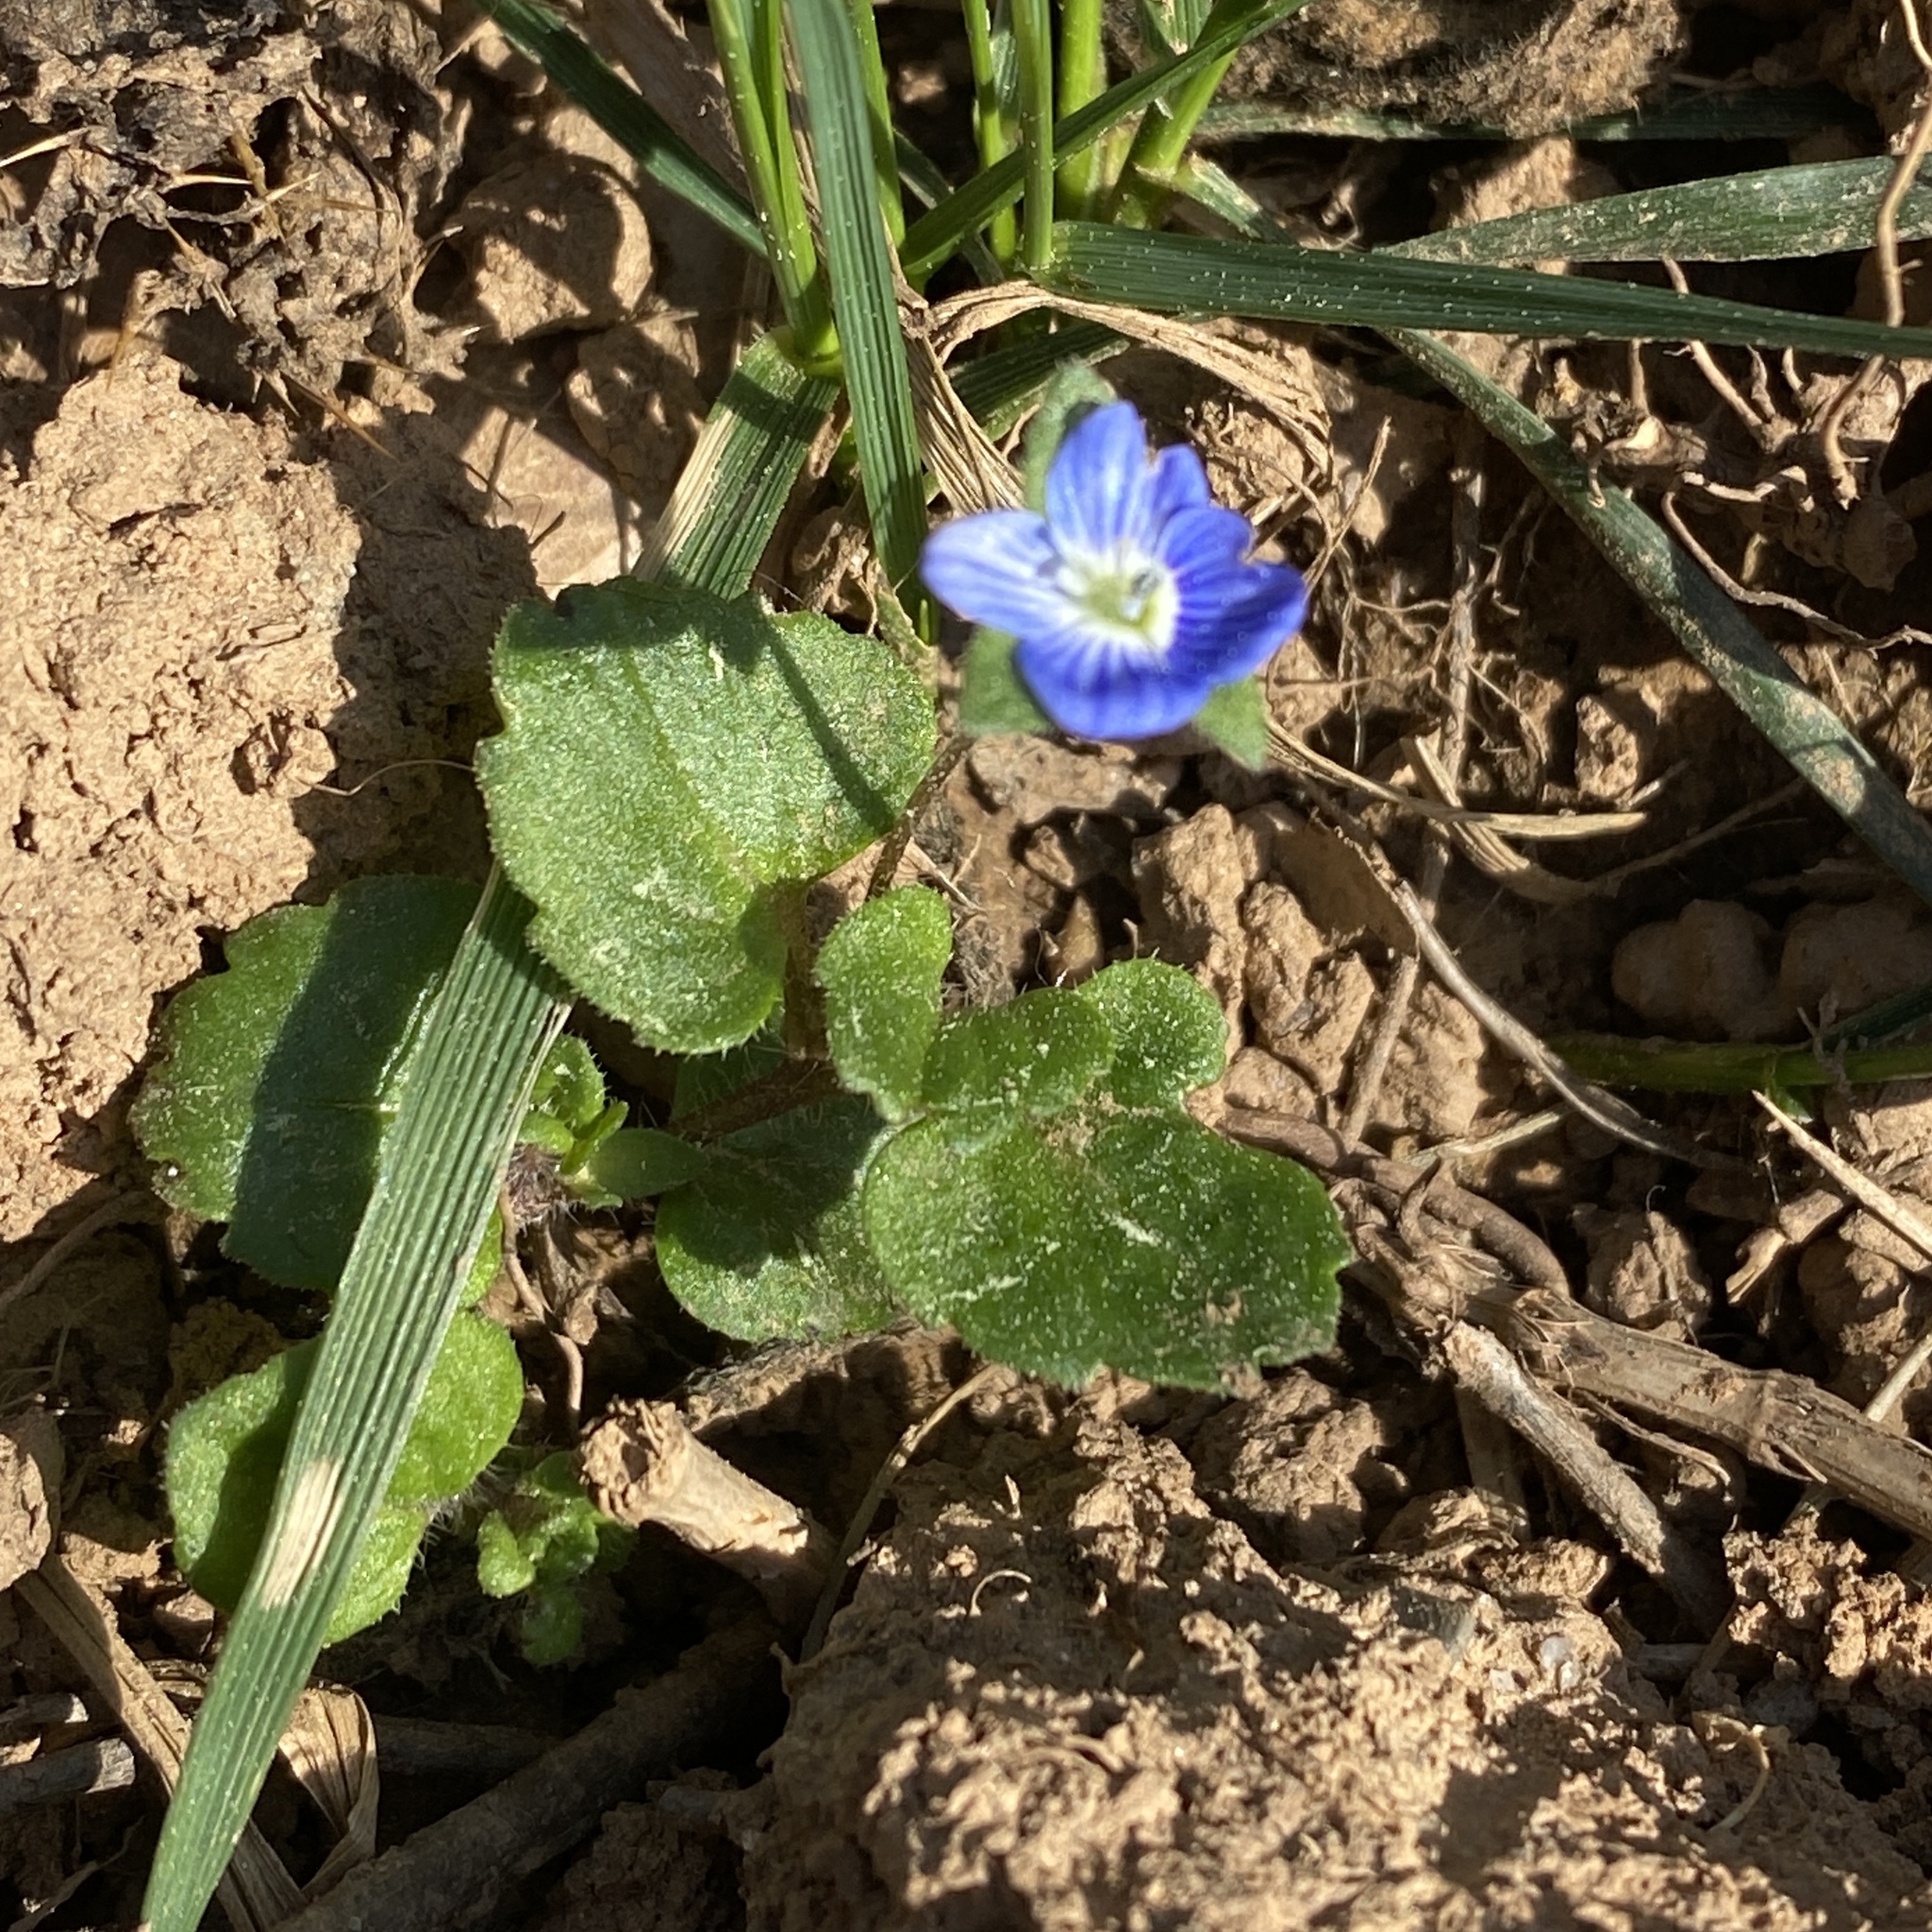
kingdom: Plantae
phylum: Tracheophyta
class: Magnoliopsida
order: Lamiales
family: Plantaginaceae
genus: Veronica
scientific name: Veronica persica
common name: Common field-speedwell
